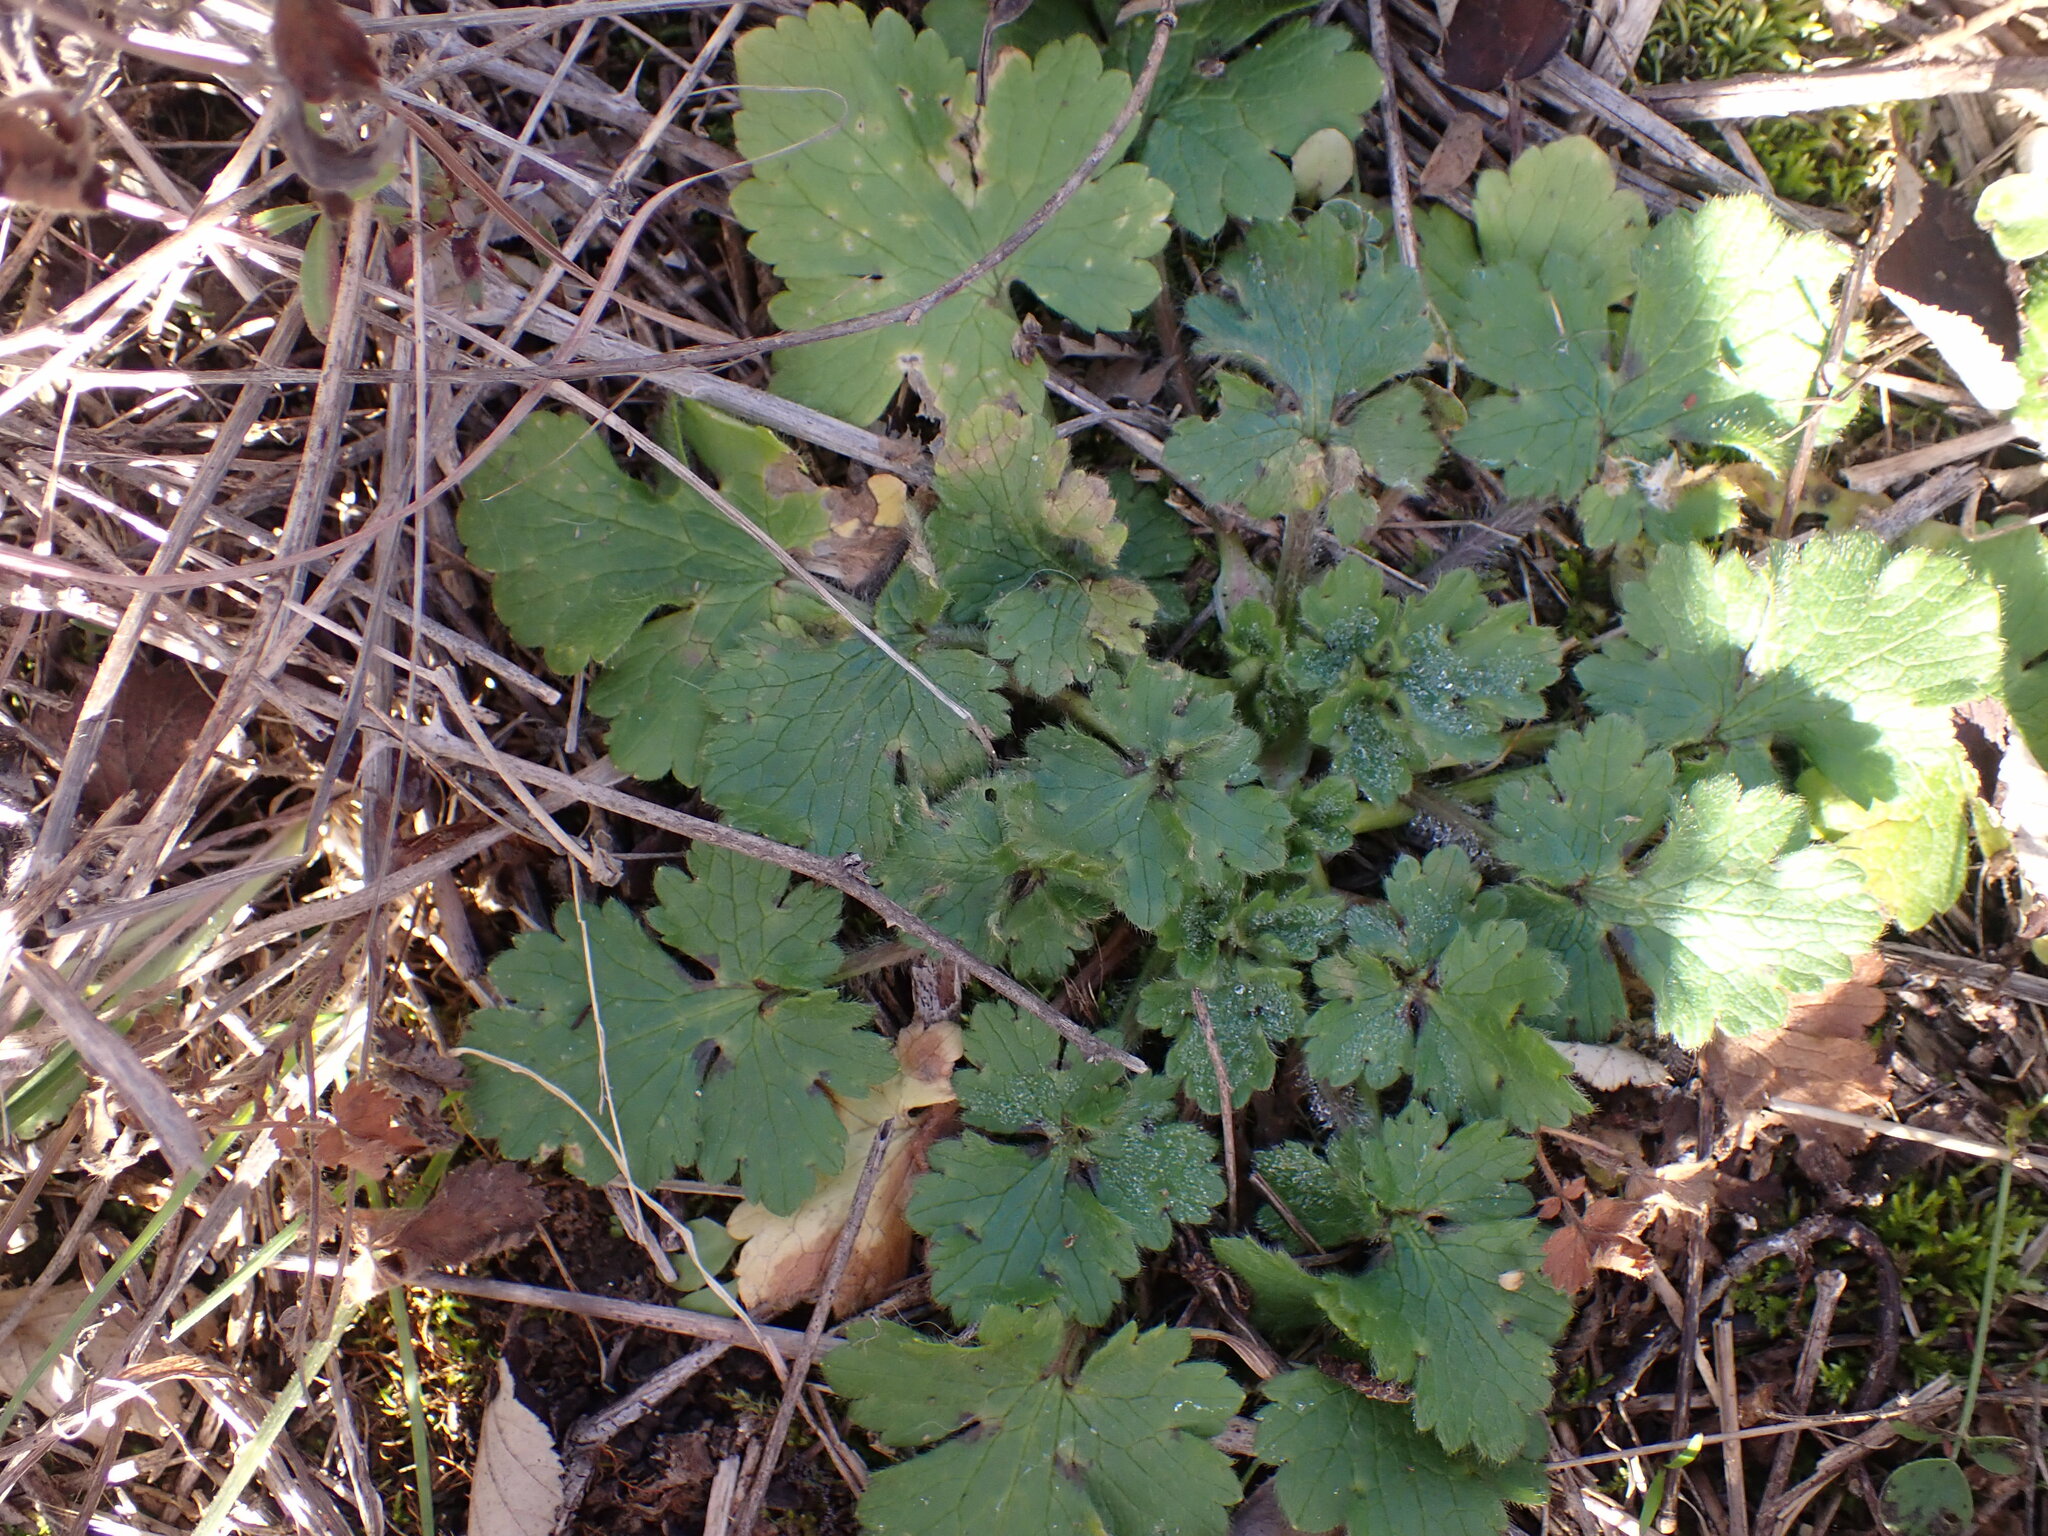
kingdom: Plantae
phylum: Tracheophyta
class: Magnoliopsida
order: Ranunculales
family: Ranunculaceae
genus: Ranunculus
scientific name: Ranunculus bulbosus
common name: Bulbous buttercup
